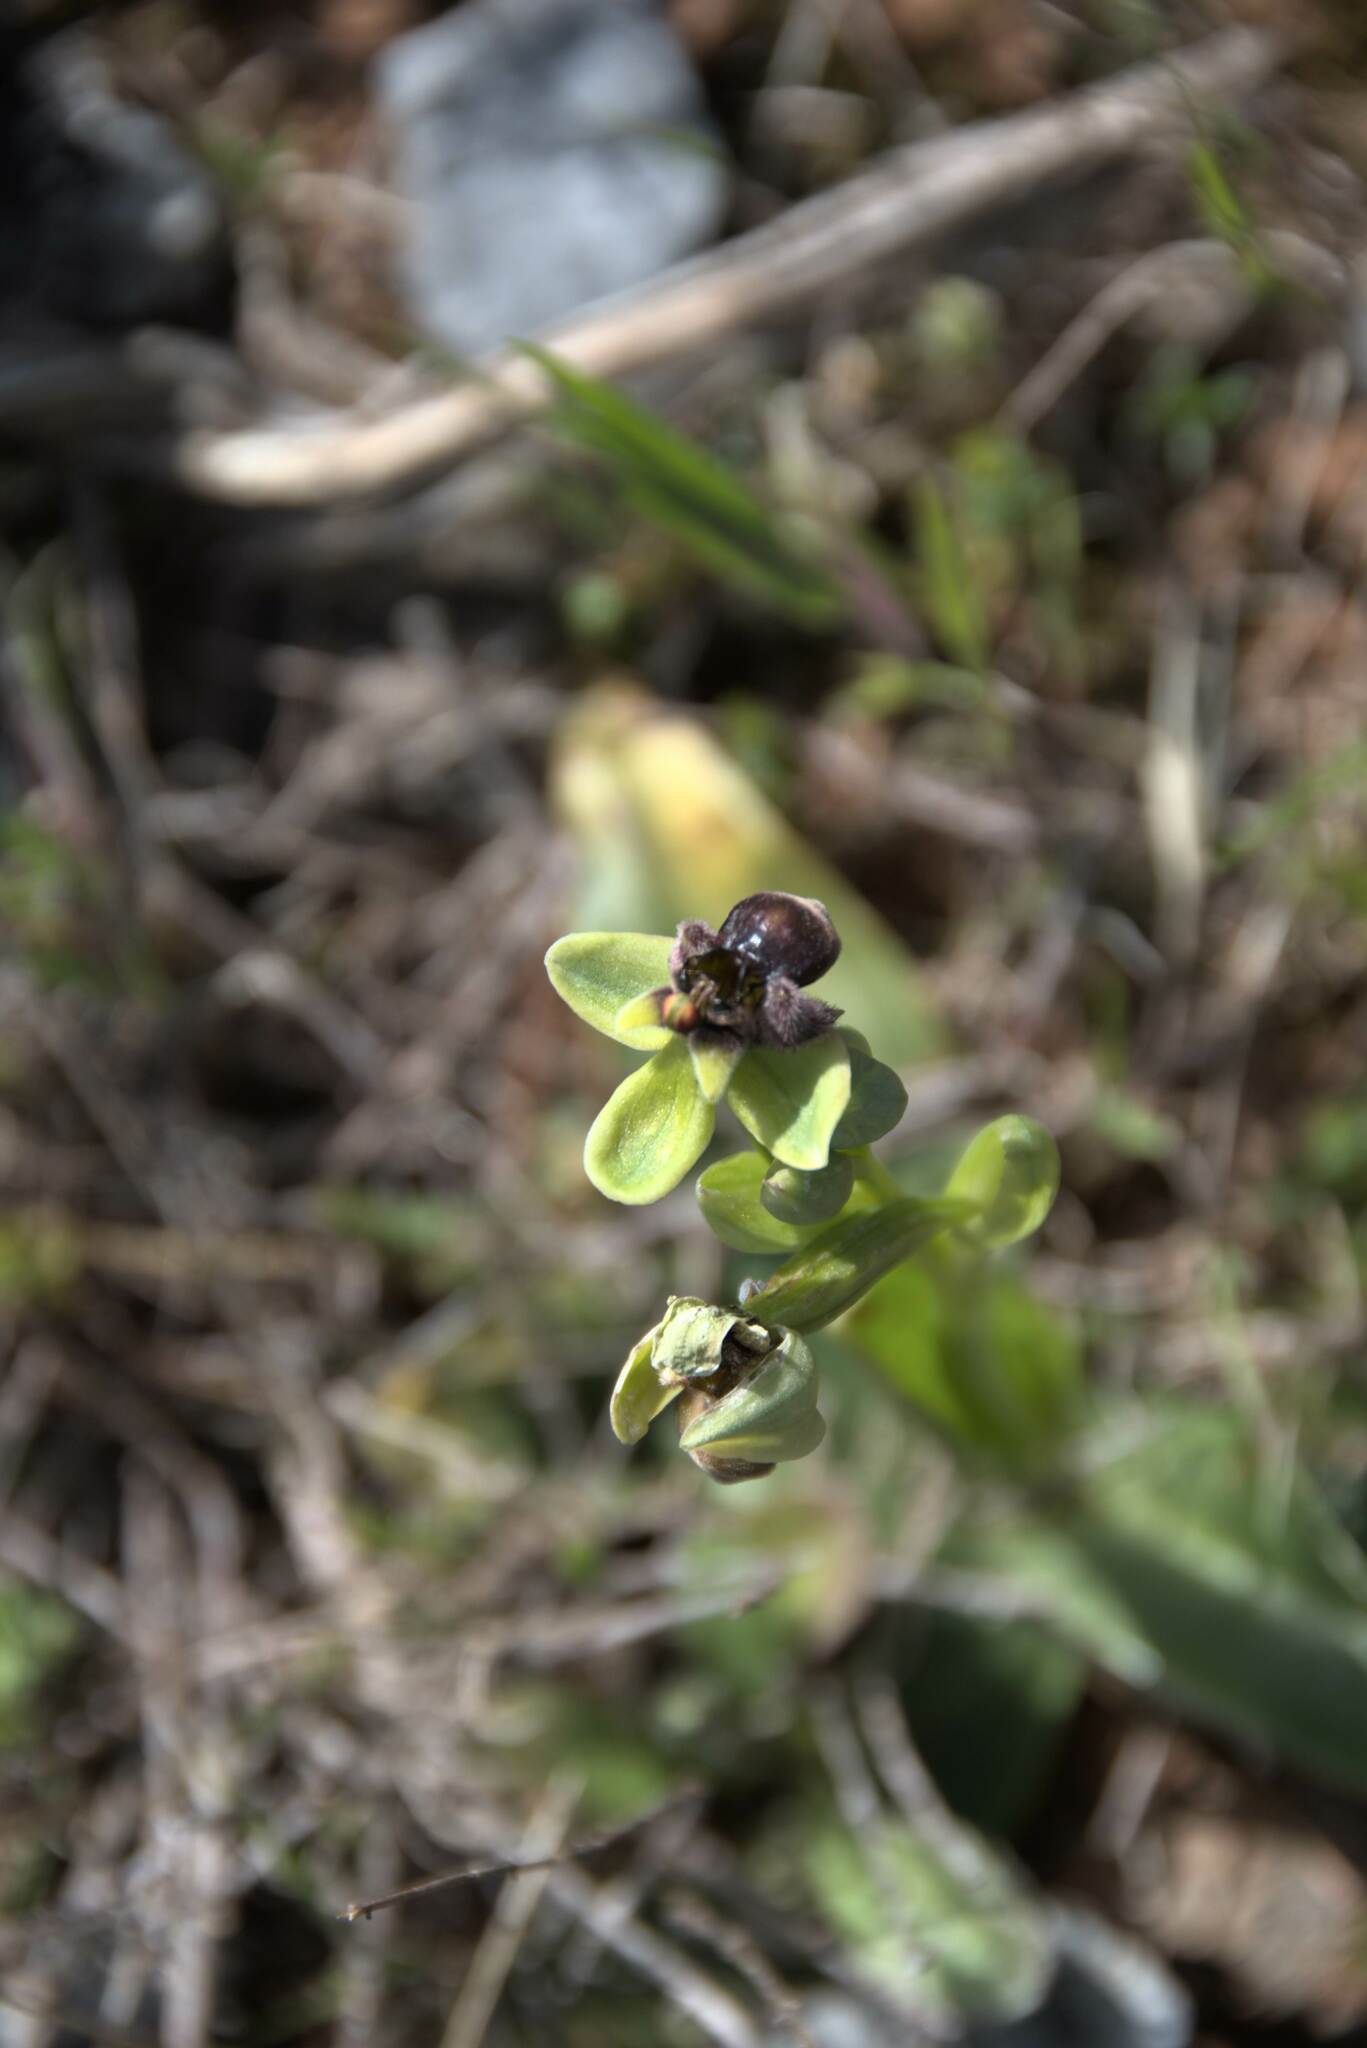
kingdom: Plantae
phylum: Tracheophyta
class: Liliopsida
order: Asparagales
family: Orchidaceae
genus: Ophrys
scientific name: Ophrys bombyliflora
